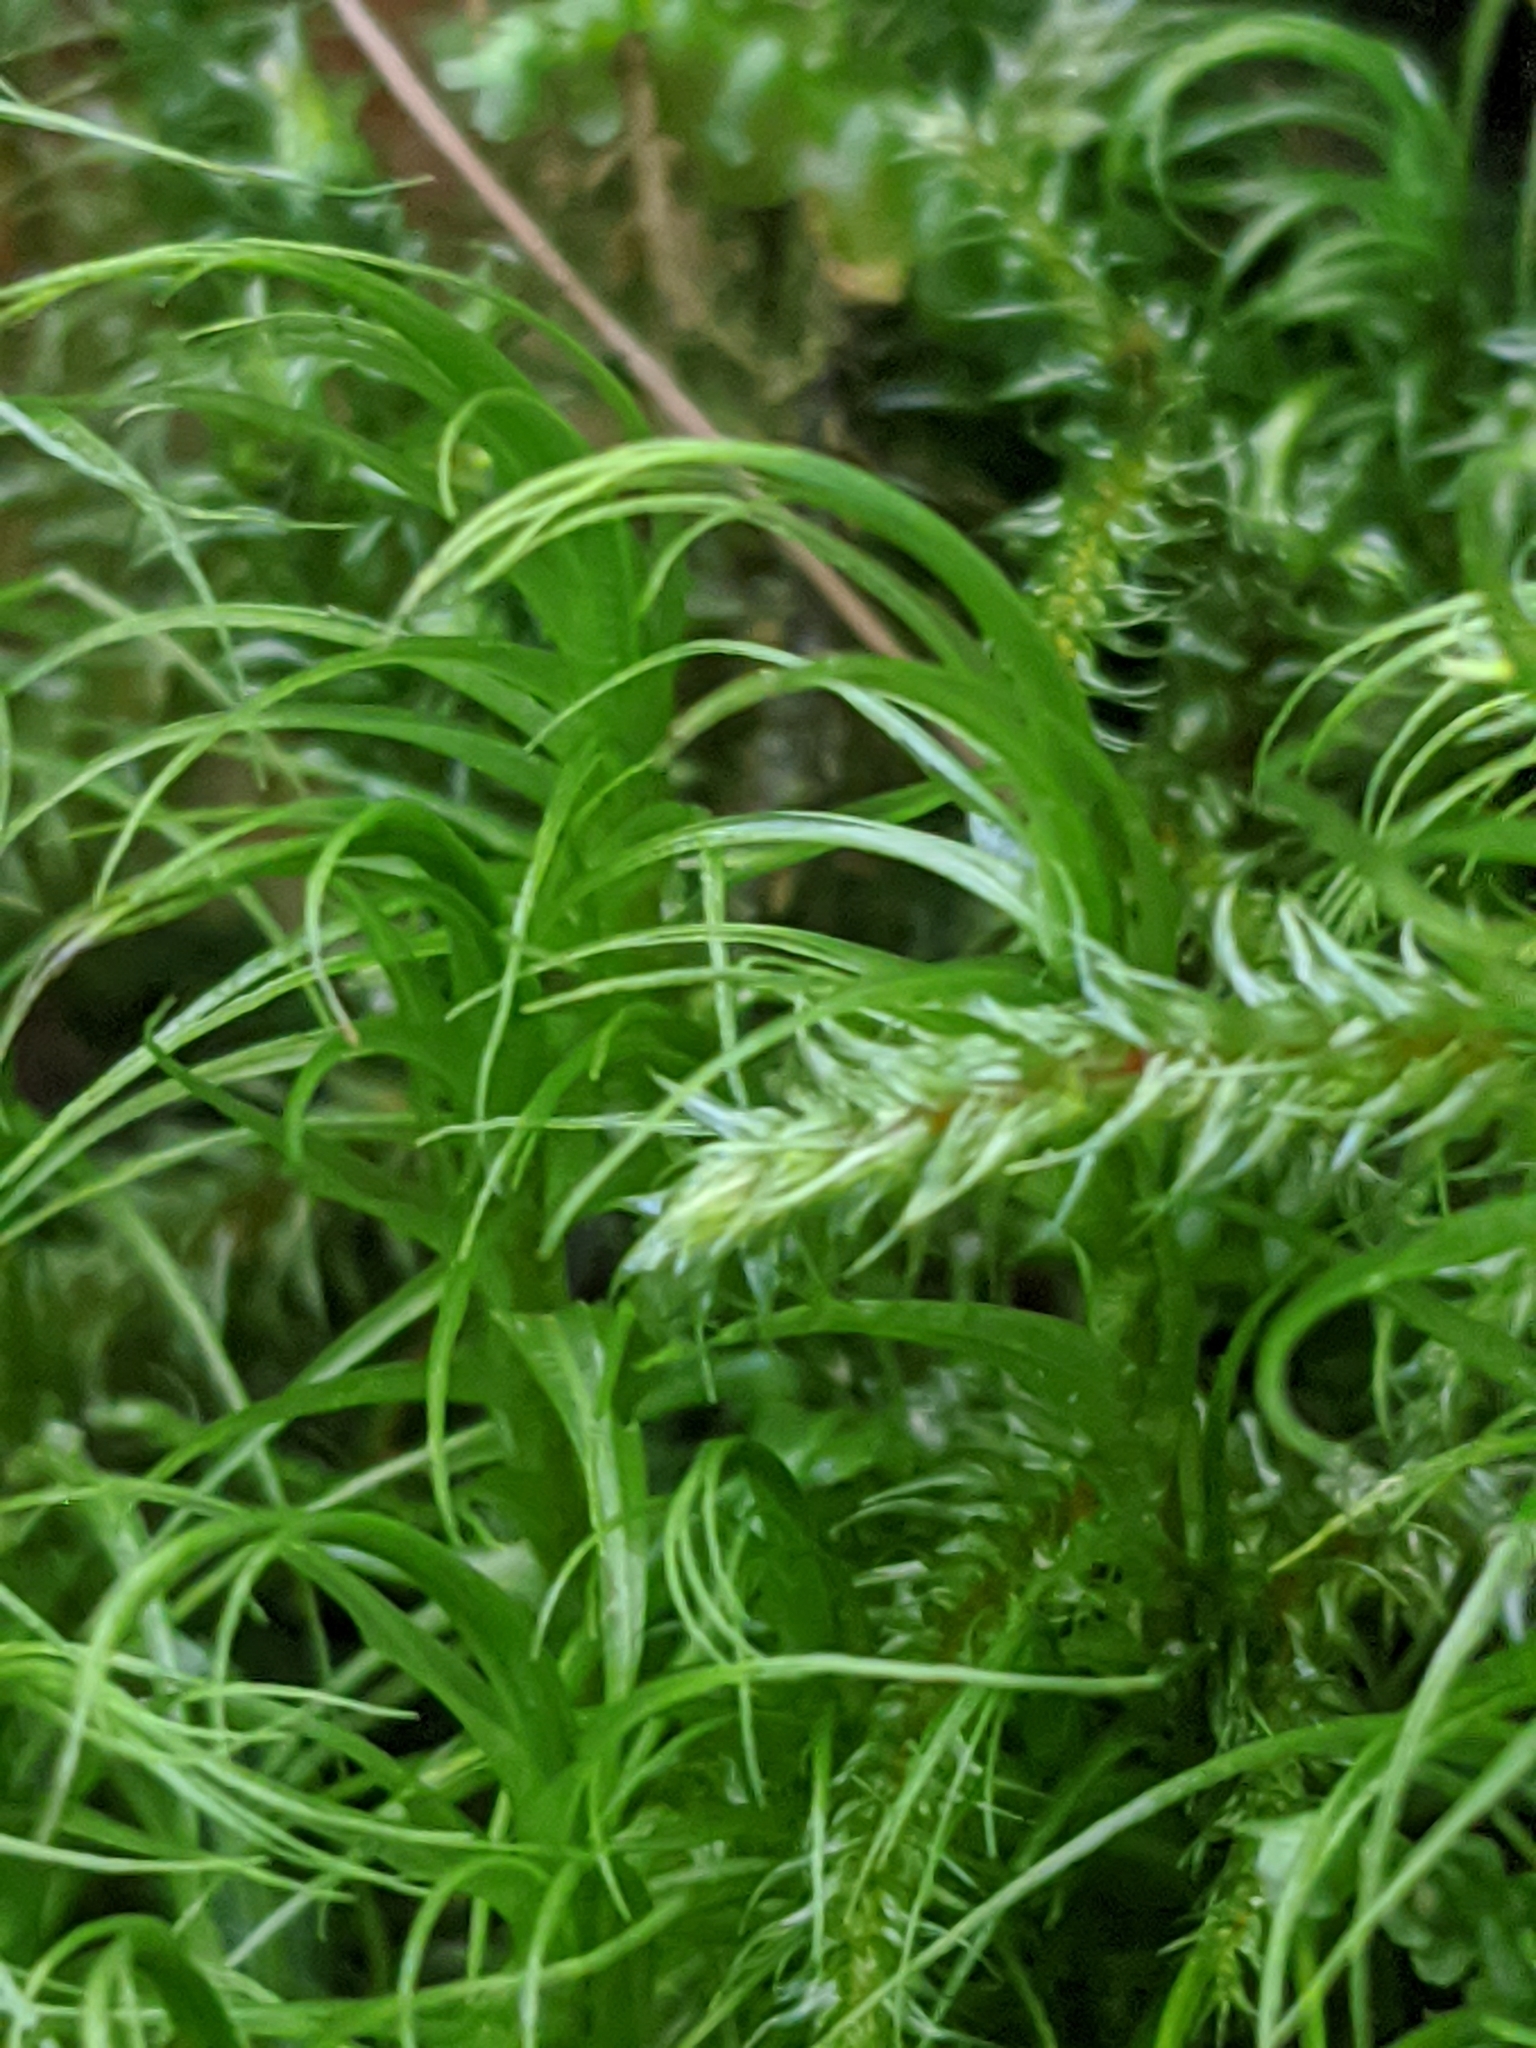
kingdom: Plantae
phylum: Bryophyta
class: Bryopsida
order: Dicranales
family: Dicranaceae
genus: Dicranum
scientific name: Dicranum majus
